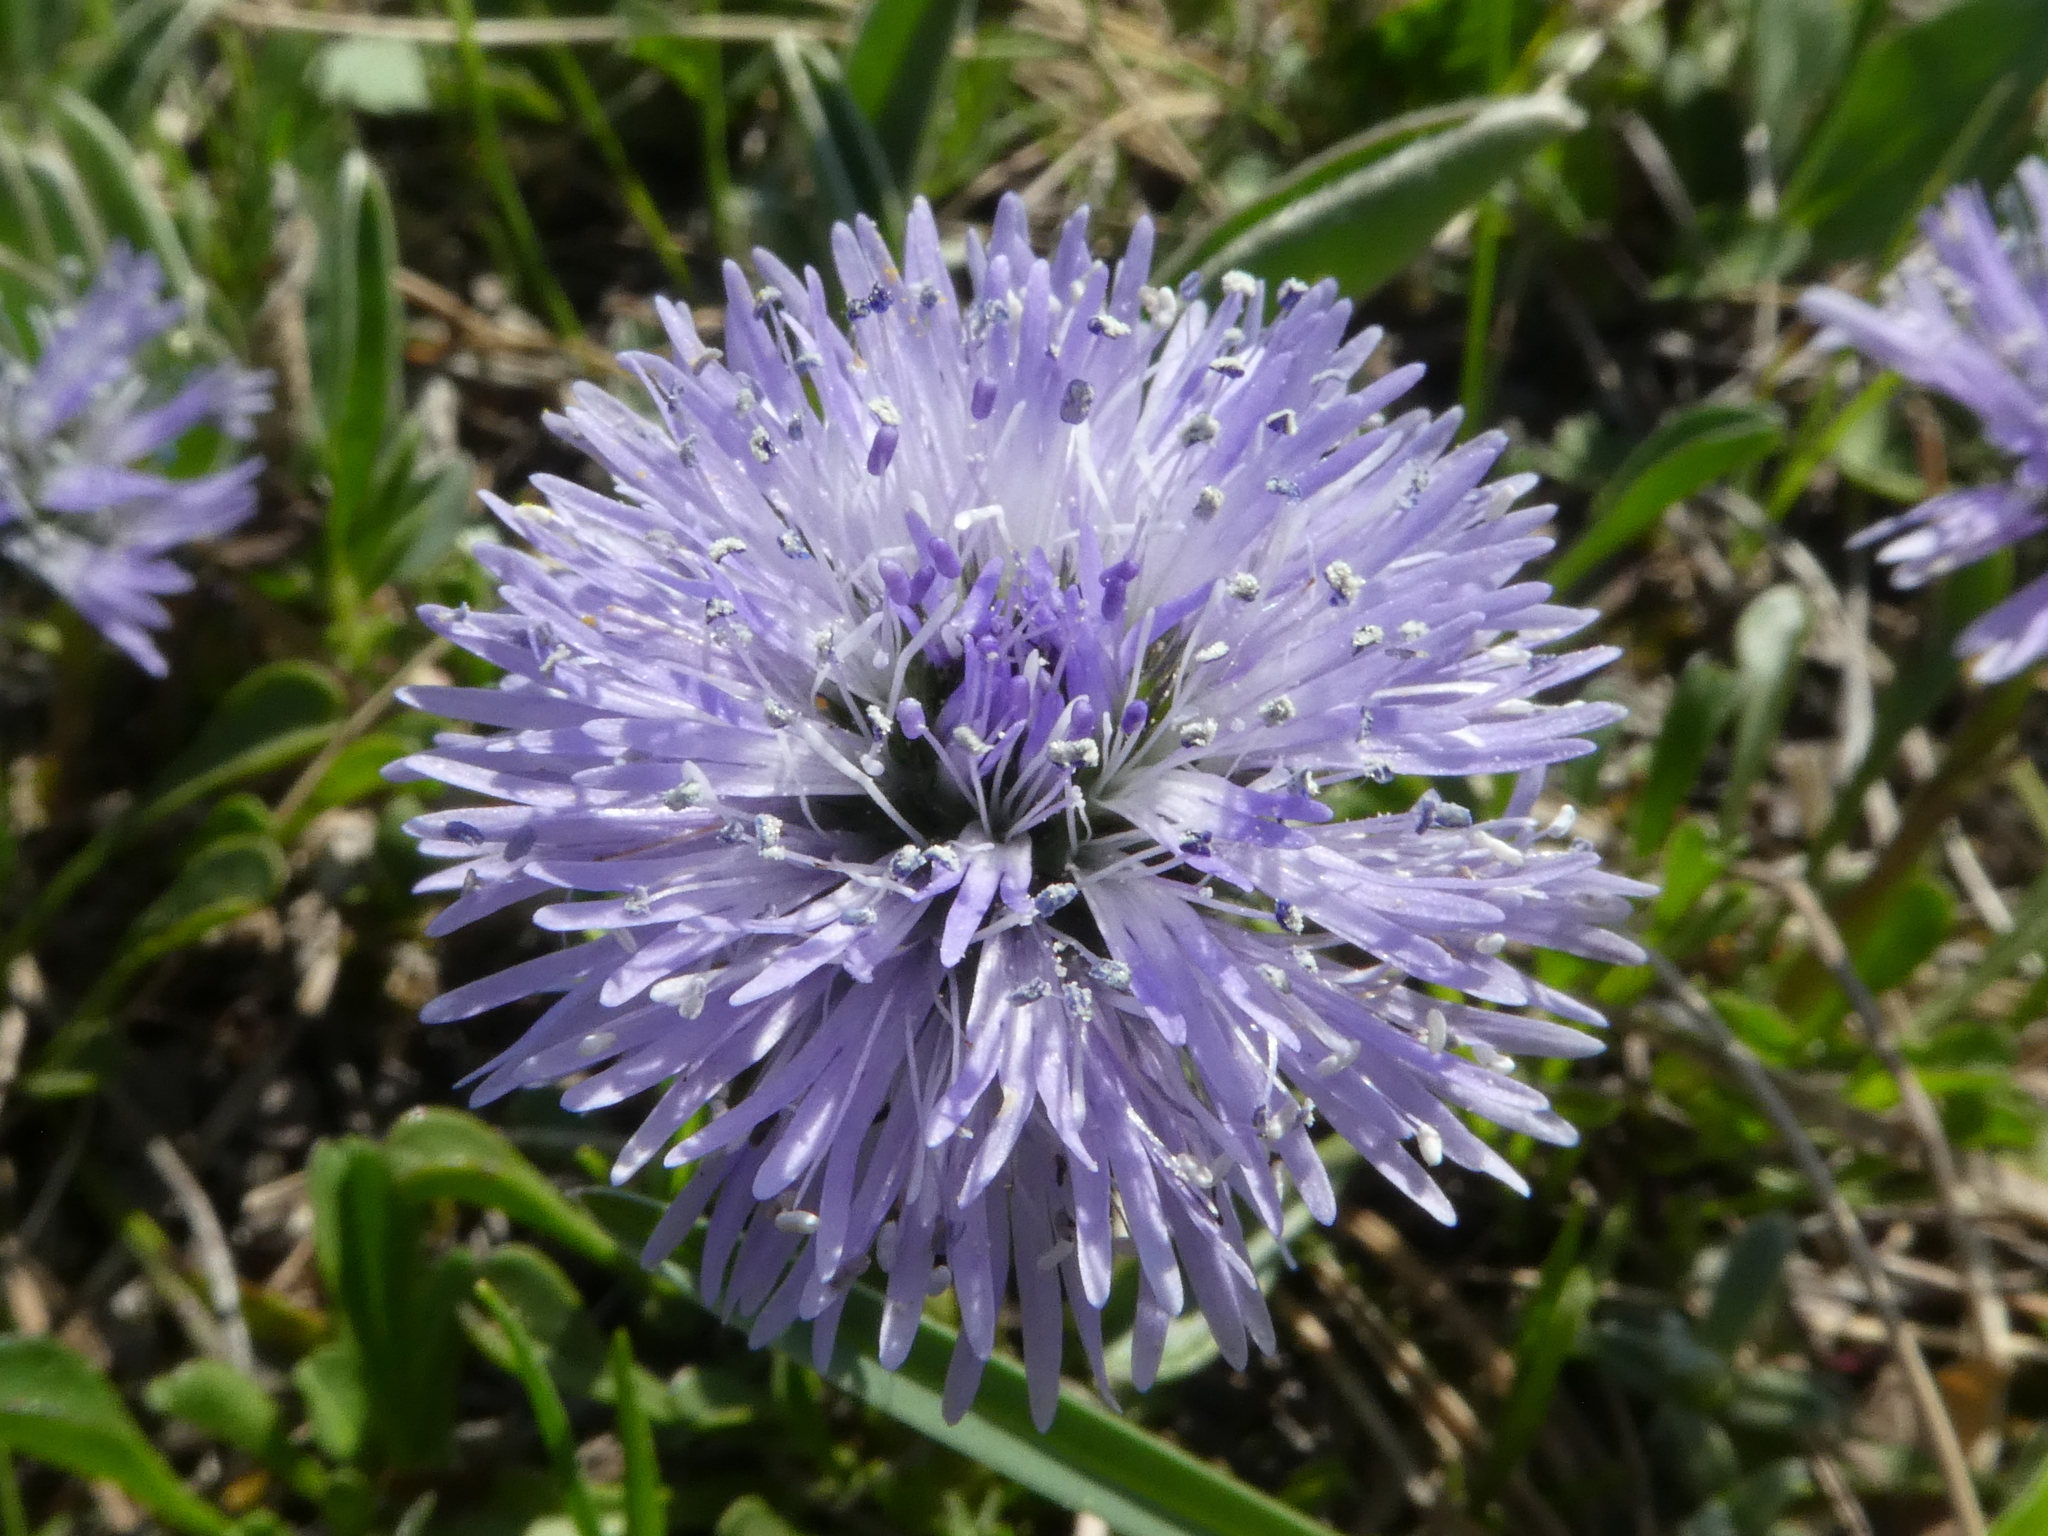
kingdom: Plantae
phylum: Tracheophyta
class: Magnoliopsida
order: Lamiales
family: Plantaginaceae
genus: Globularia
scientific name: Globularia cordifolia
